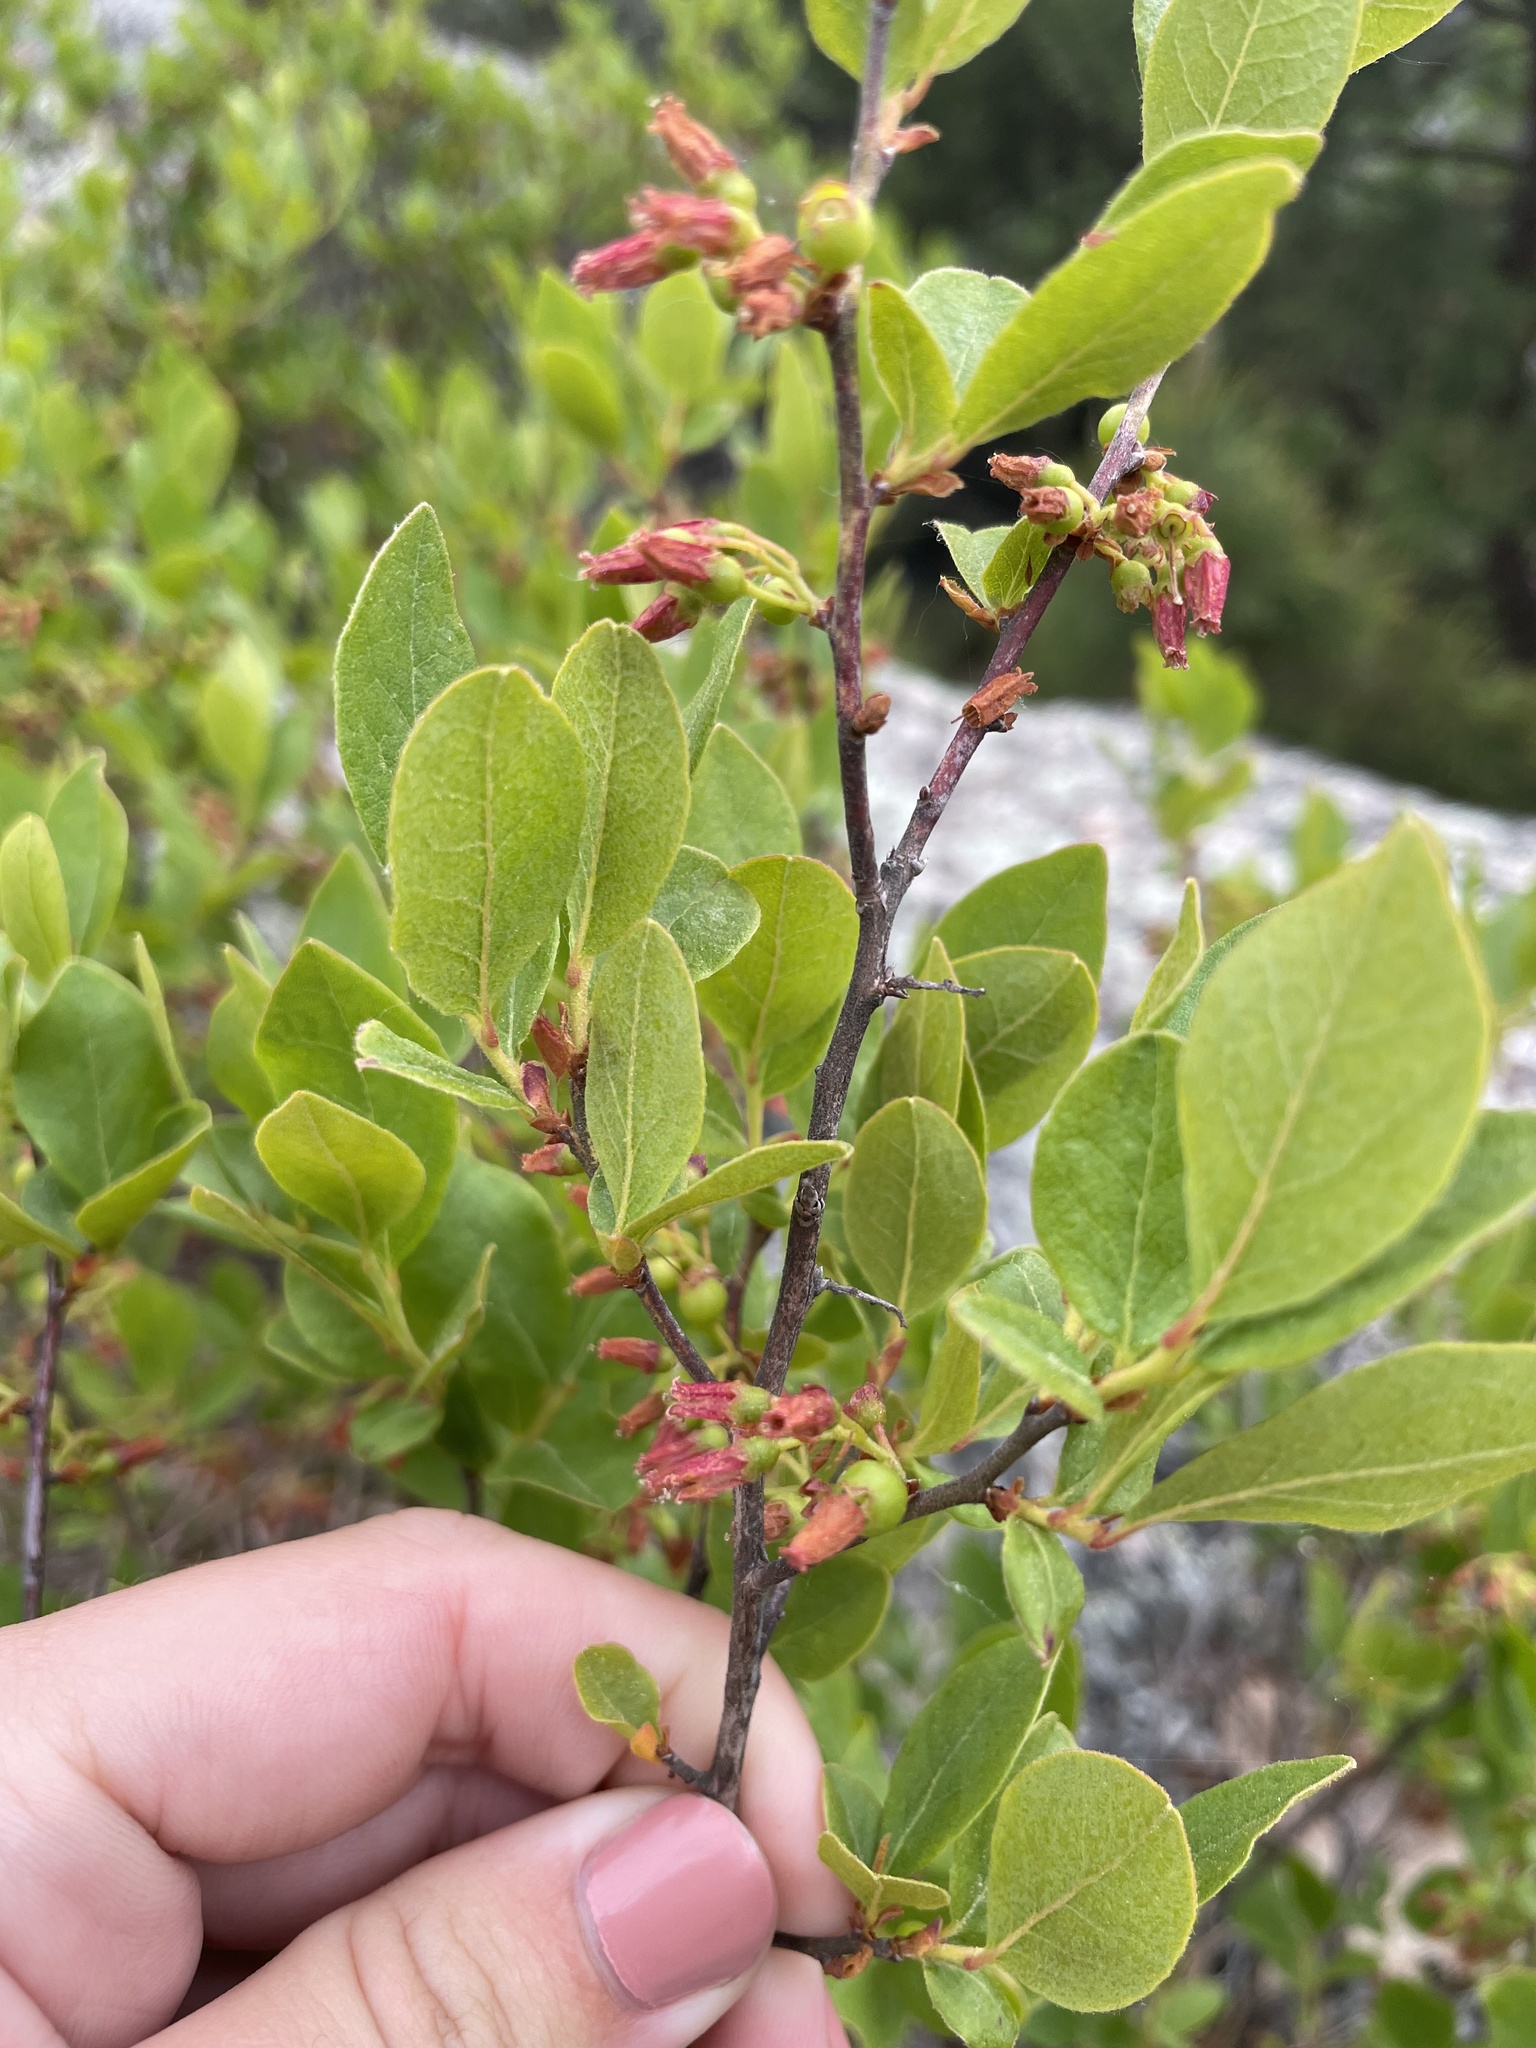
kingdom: Plantae
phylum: Tracheophyta
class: Magnoliopsida
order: Ericales
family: Ericaceae
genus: Gaylussacia
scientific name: Gaylussacia baccata
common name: Black huckleberry
